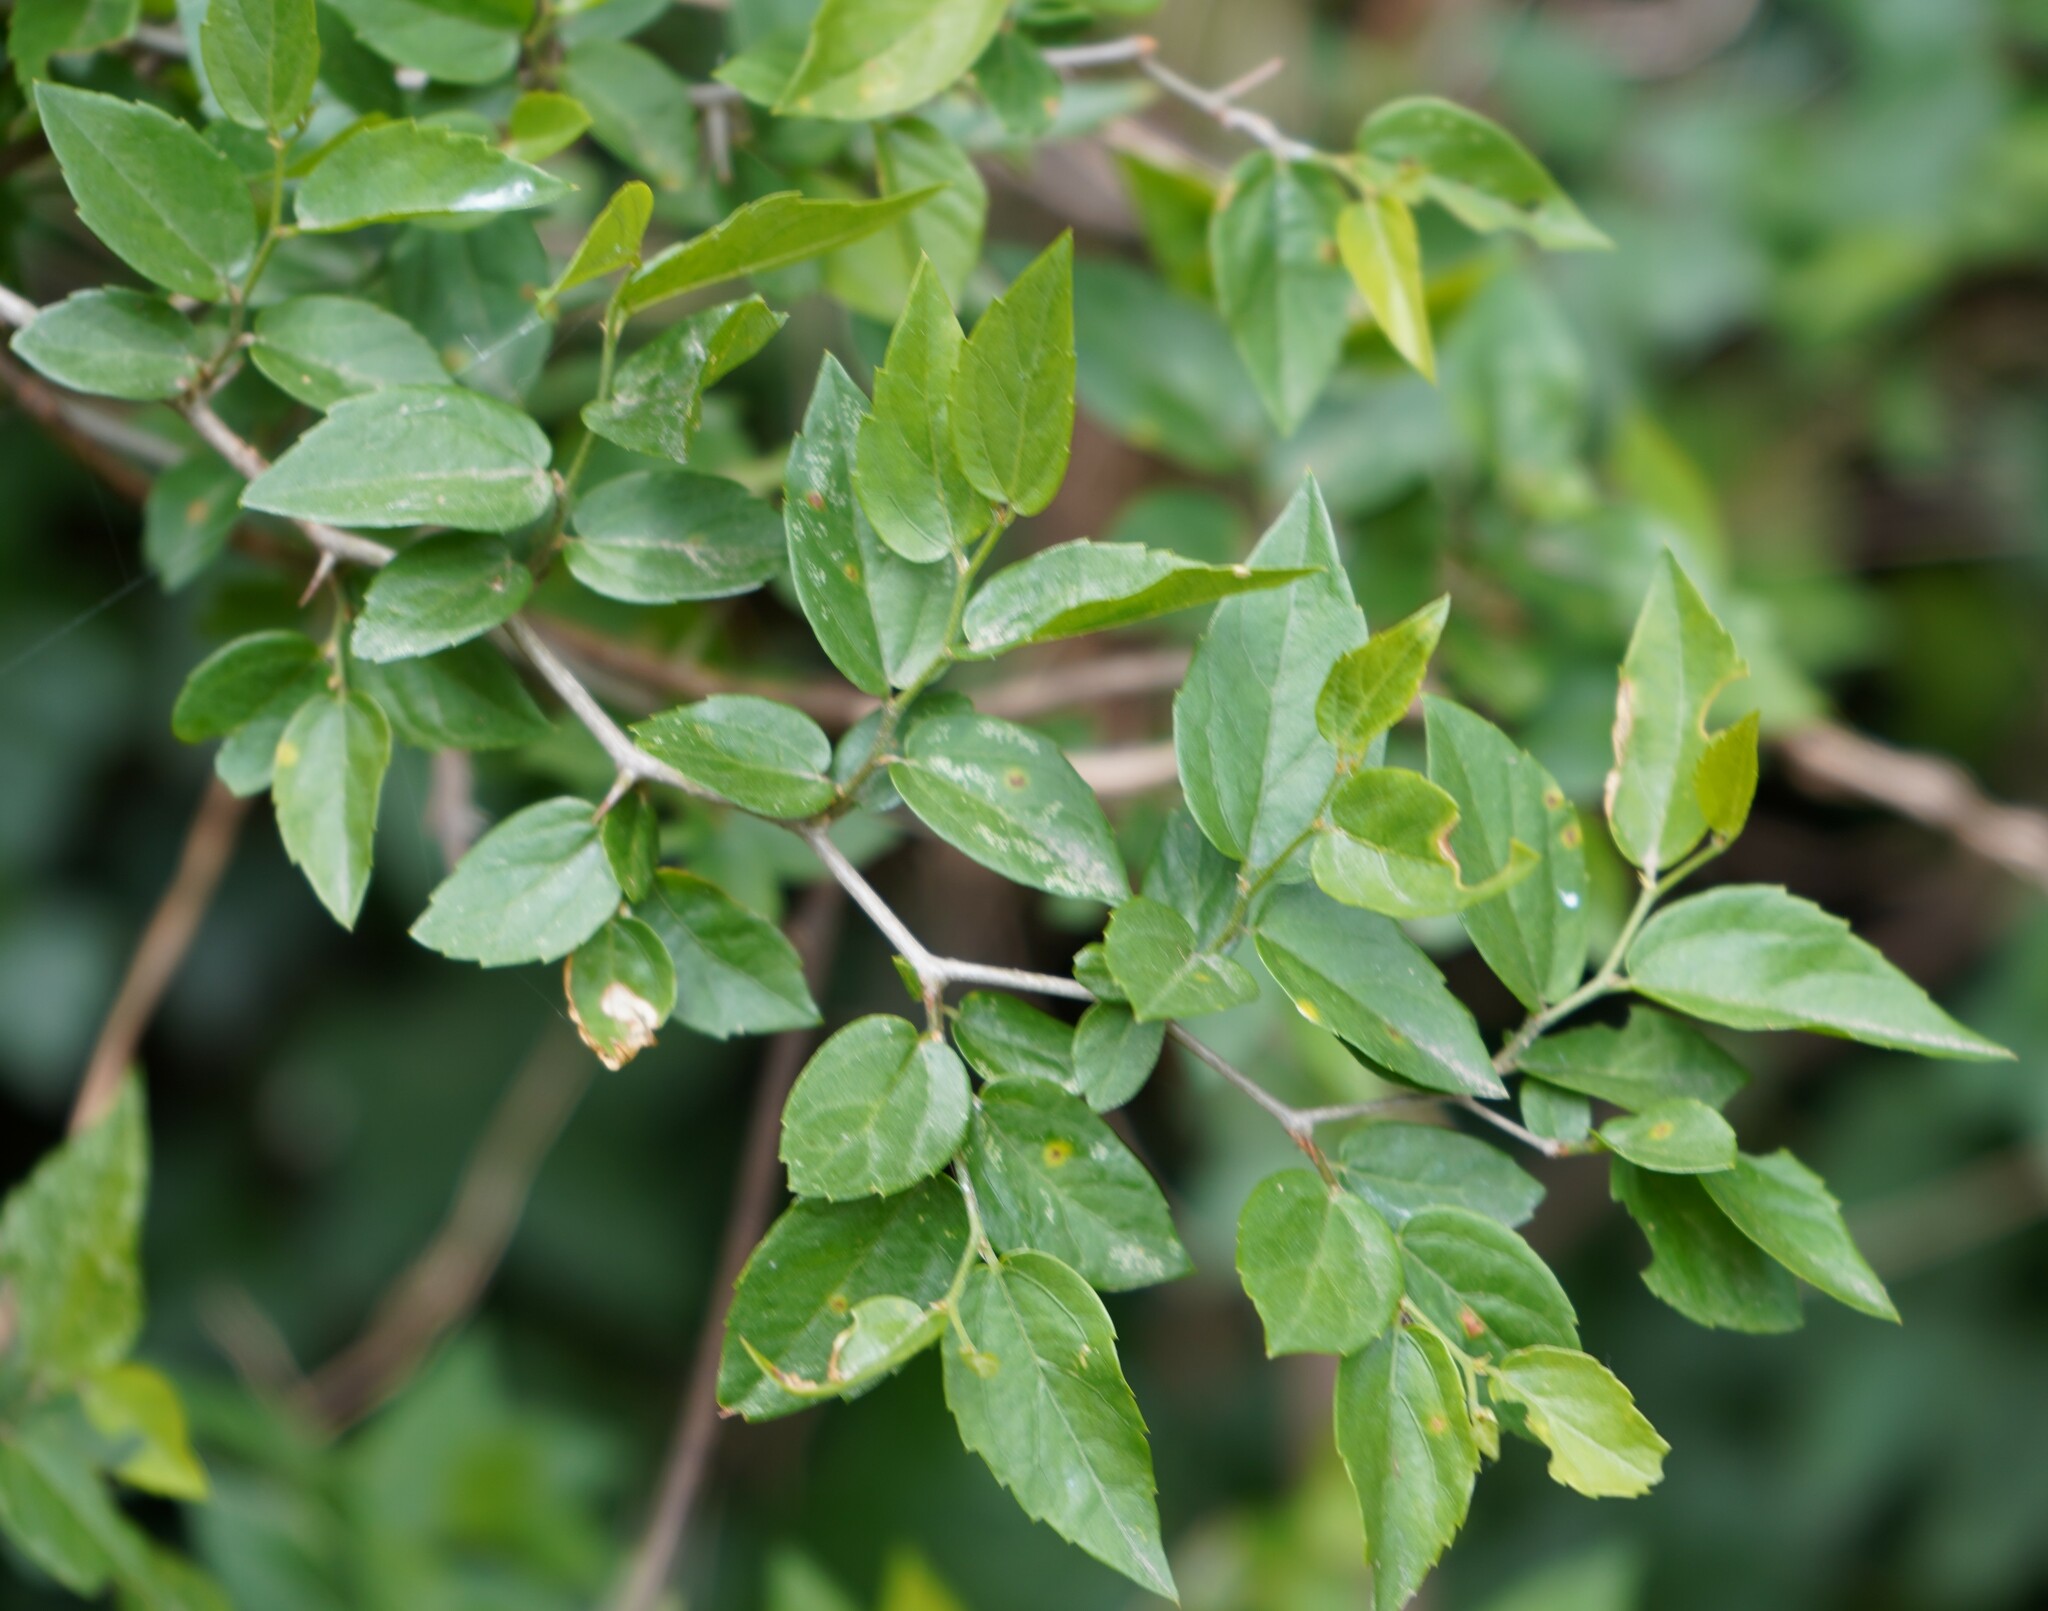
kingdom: Plantae
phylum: Tracheophyta
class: Magnoliopsida
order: Rosales
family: Cannabaceae
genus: Celtis
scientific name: Celtis tala
